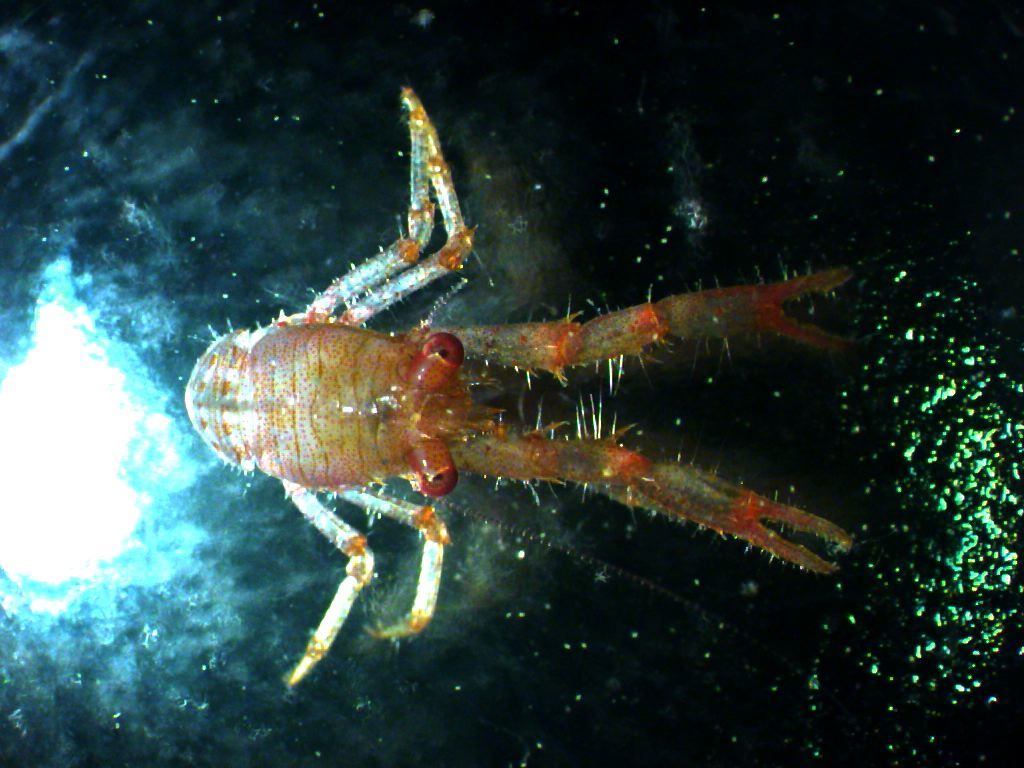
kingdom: Animalia
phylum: Arthropoda
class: Malacostraca
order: Decapoda
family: Galatheidae
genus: Galathea
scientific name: Galathea intermedia
